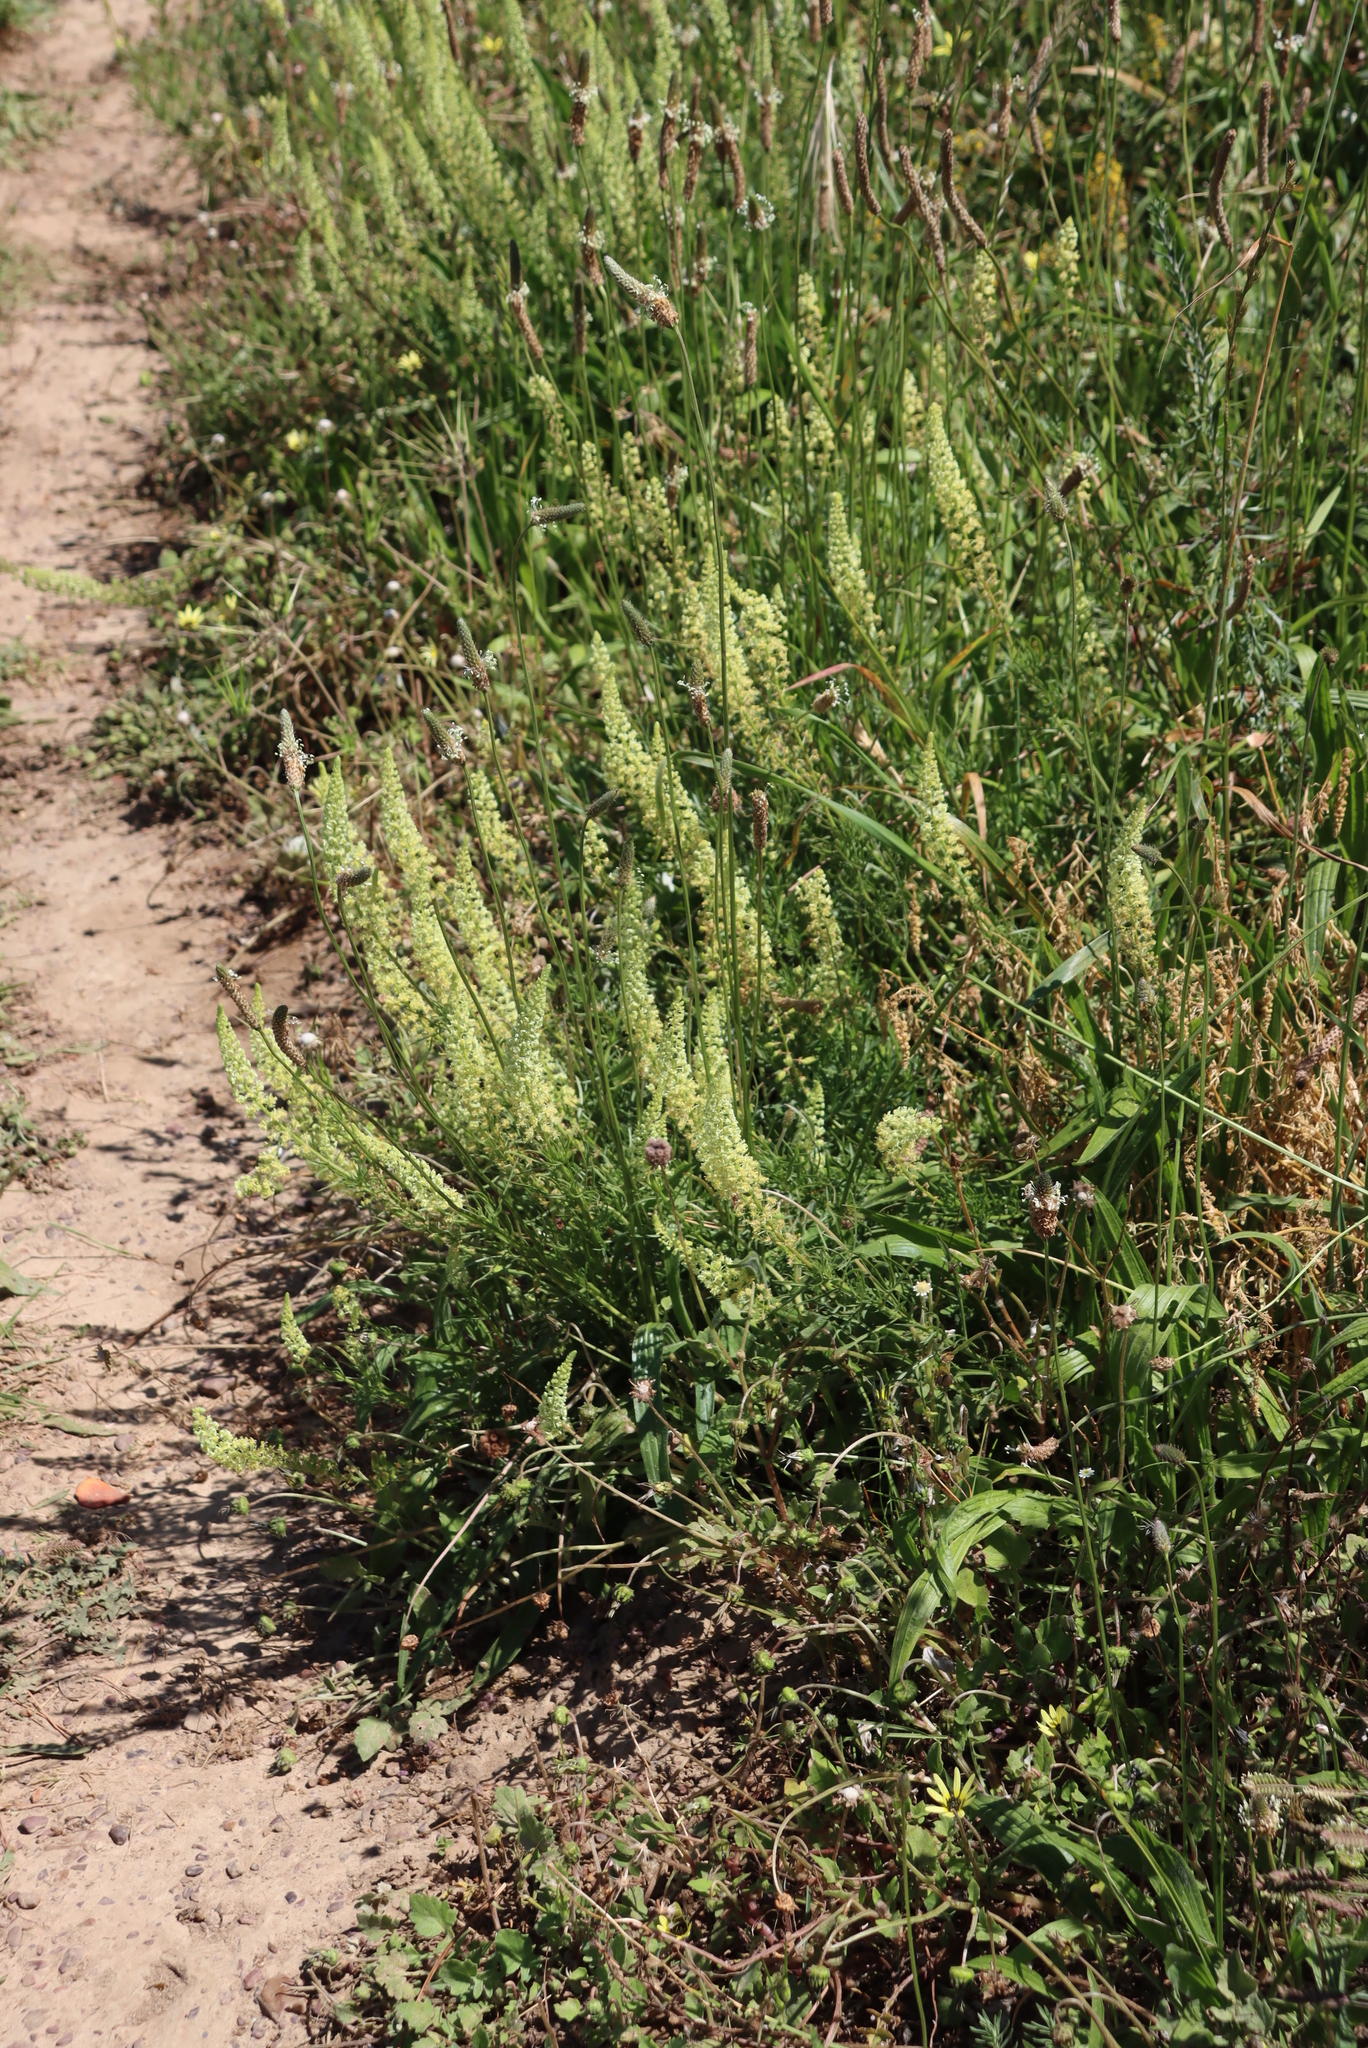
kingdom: Plantae
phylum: Tracheophyta
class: Magnoliopsida
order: Brassicales
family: Resedaceae
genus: Reseda
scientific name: Reseda lutea
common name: Wild mignonette
